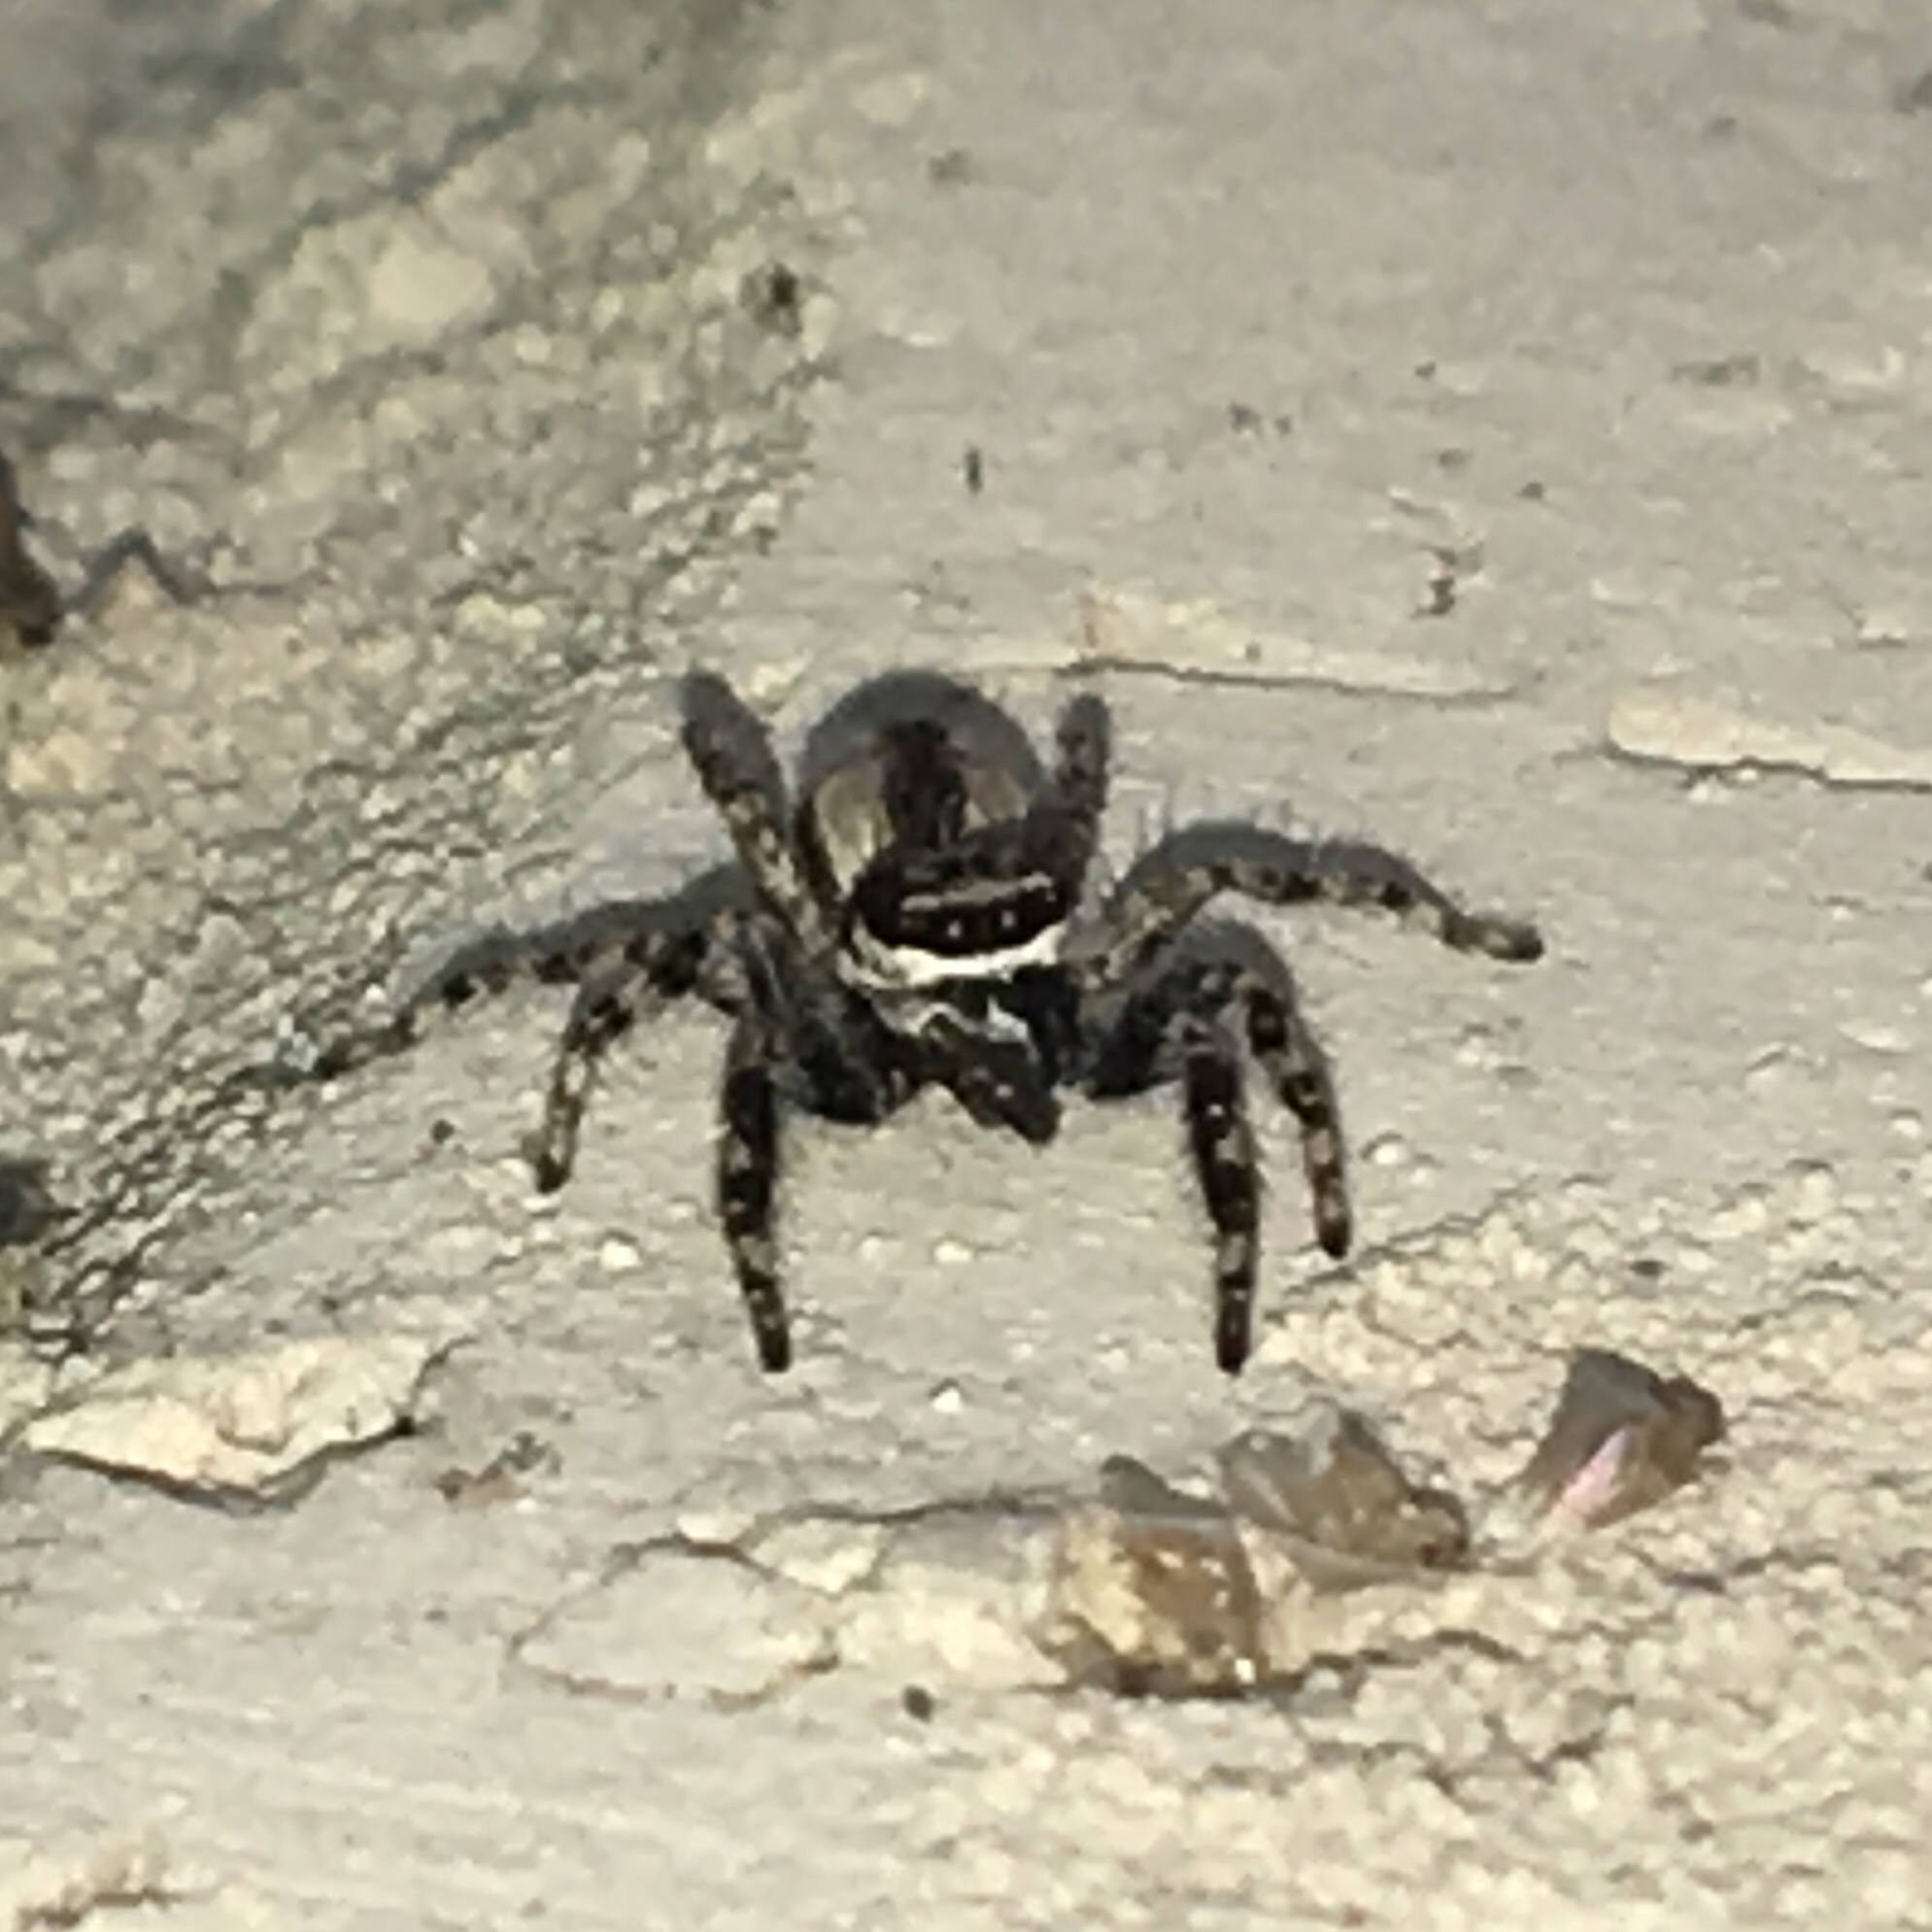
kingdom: Animalia
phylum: Arthropoda
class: Arachnida
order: Araneae
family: Salticidae
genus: Menemerus
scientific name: Menemerus bivittatus
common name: Gray wall jumper
